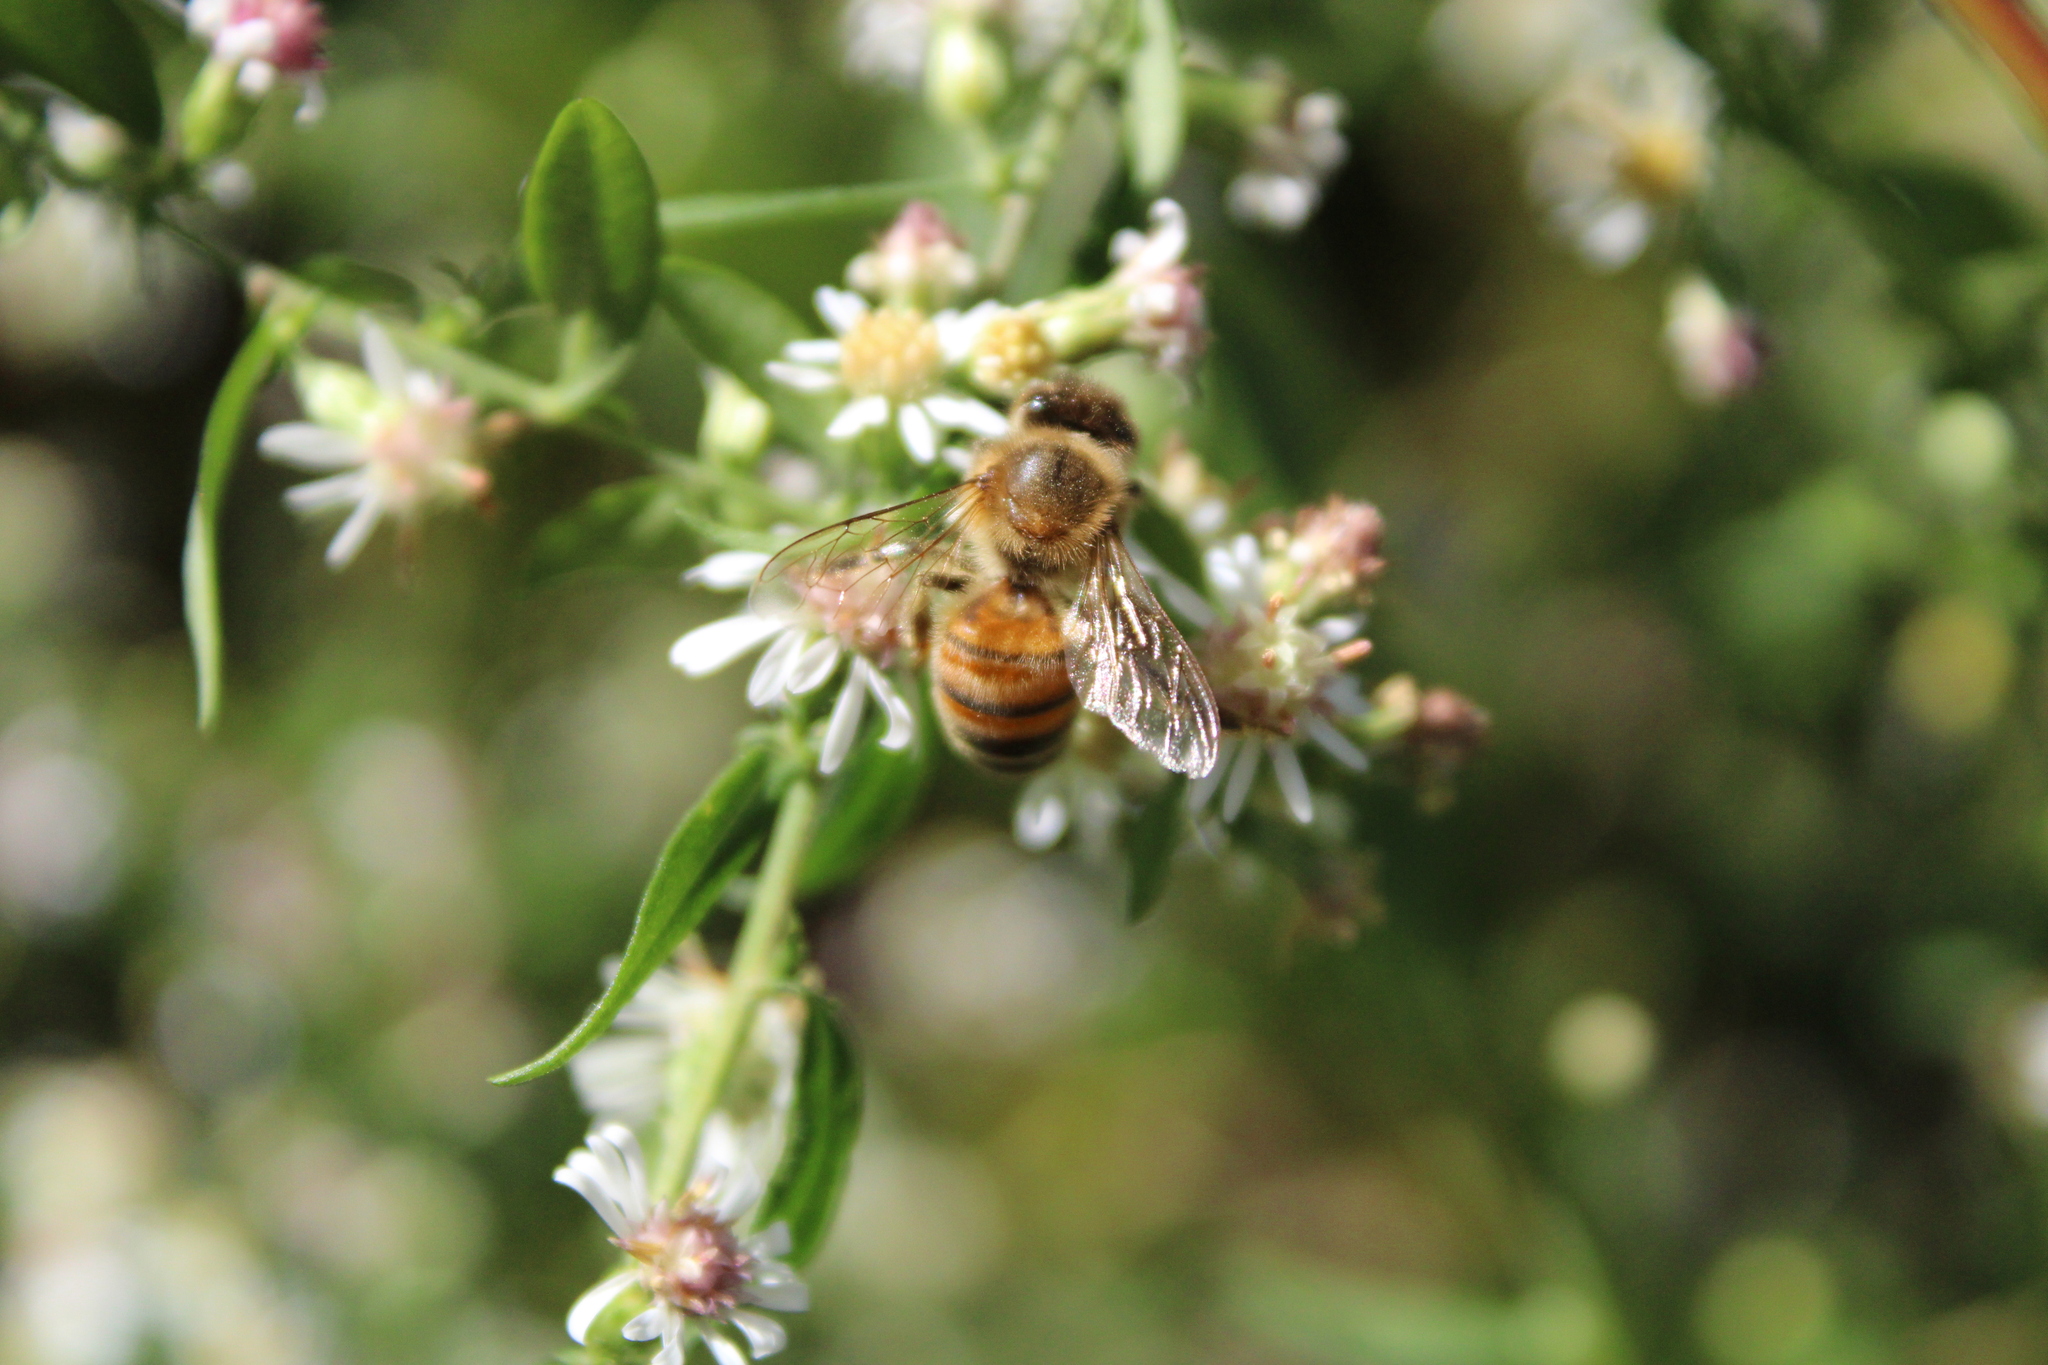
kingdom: Animalia
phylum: Arthropoda
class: Insecta
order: Hymenoptera
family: Apidae
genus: Apis
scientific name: Apis mellifera
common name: Honey bee
